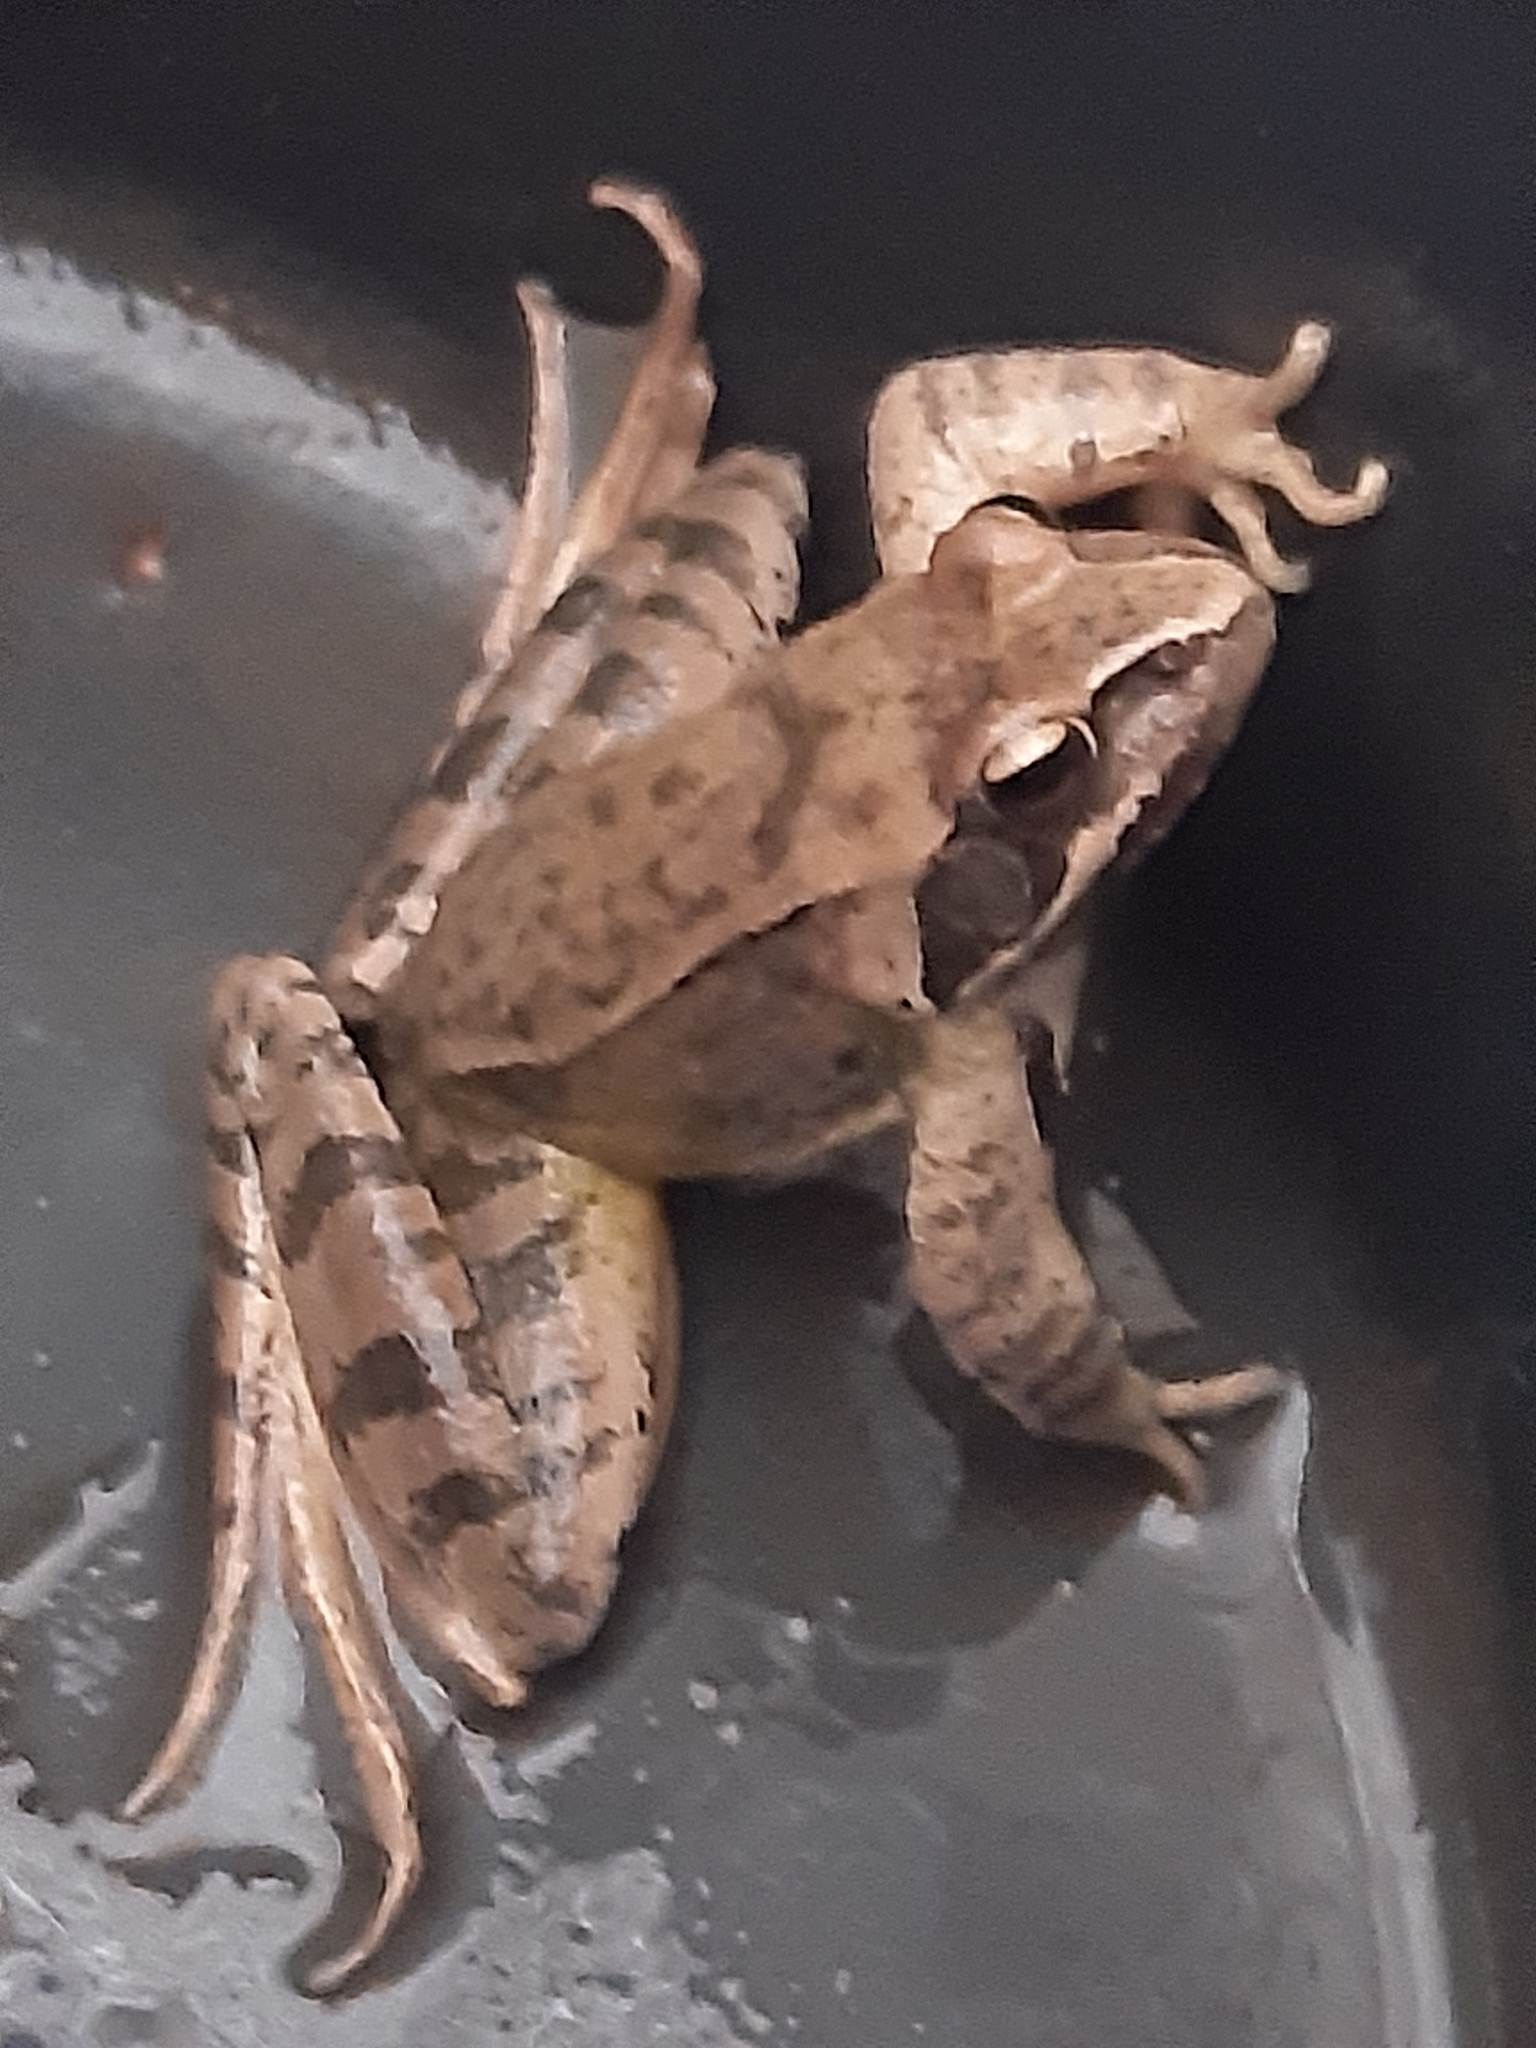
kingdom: Animalia
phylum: Chordata
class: Amphibia
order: Anura
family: Ranidae
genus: Rana
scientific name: Rana dalmatina
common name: Agile frog
